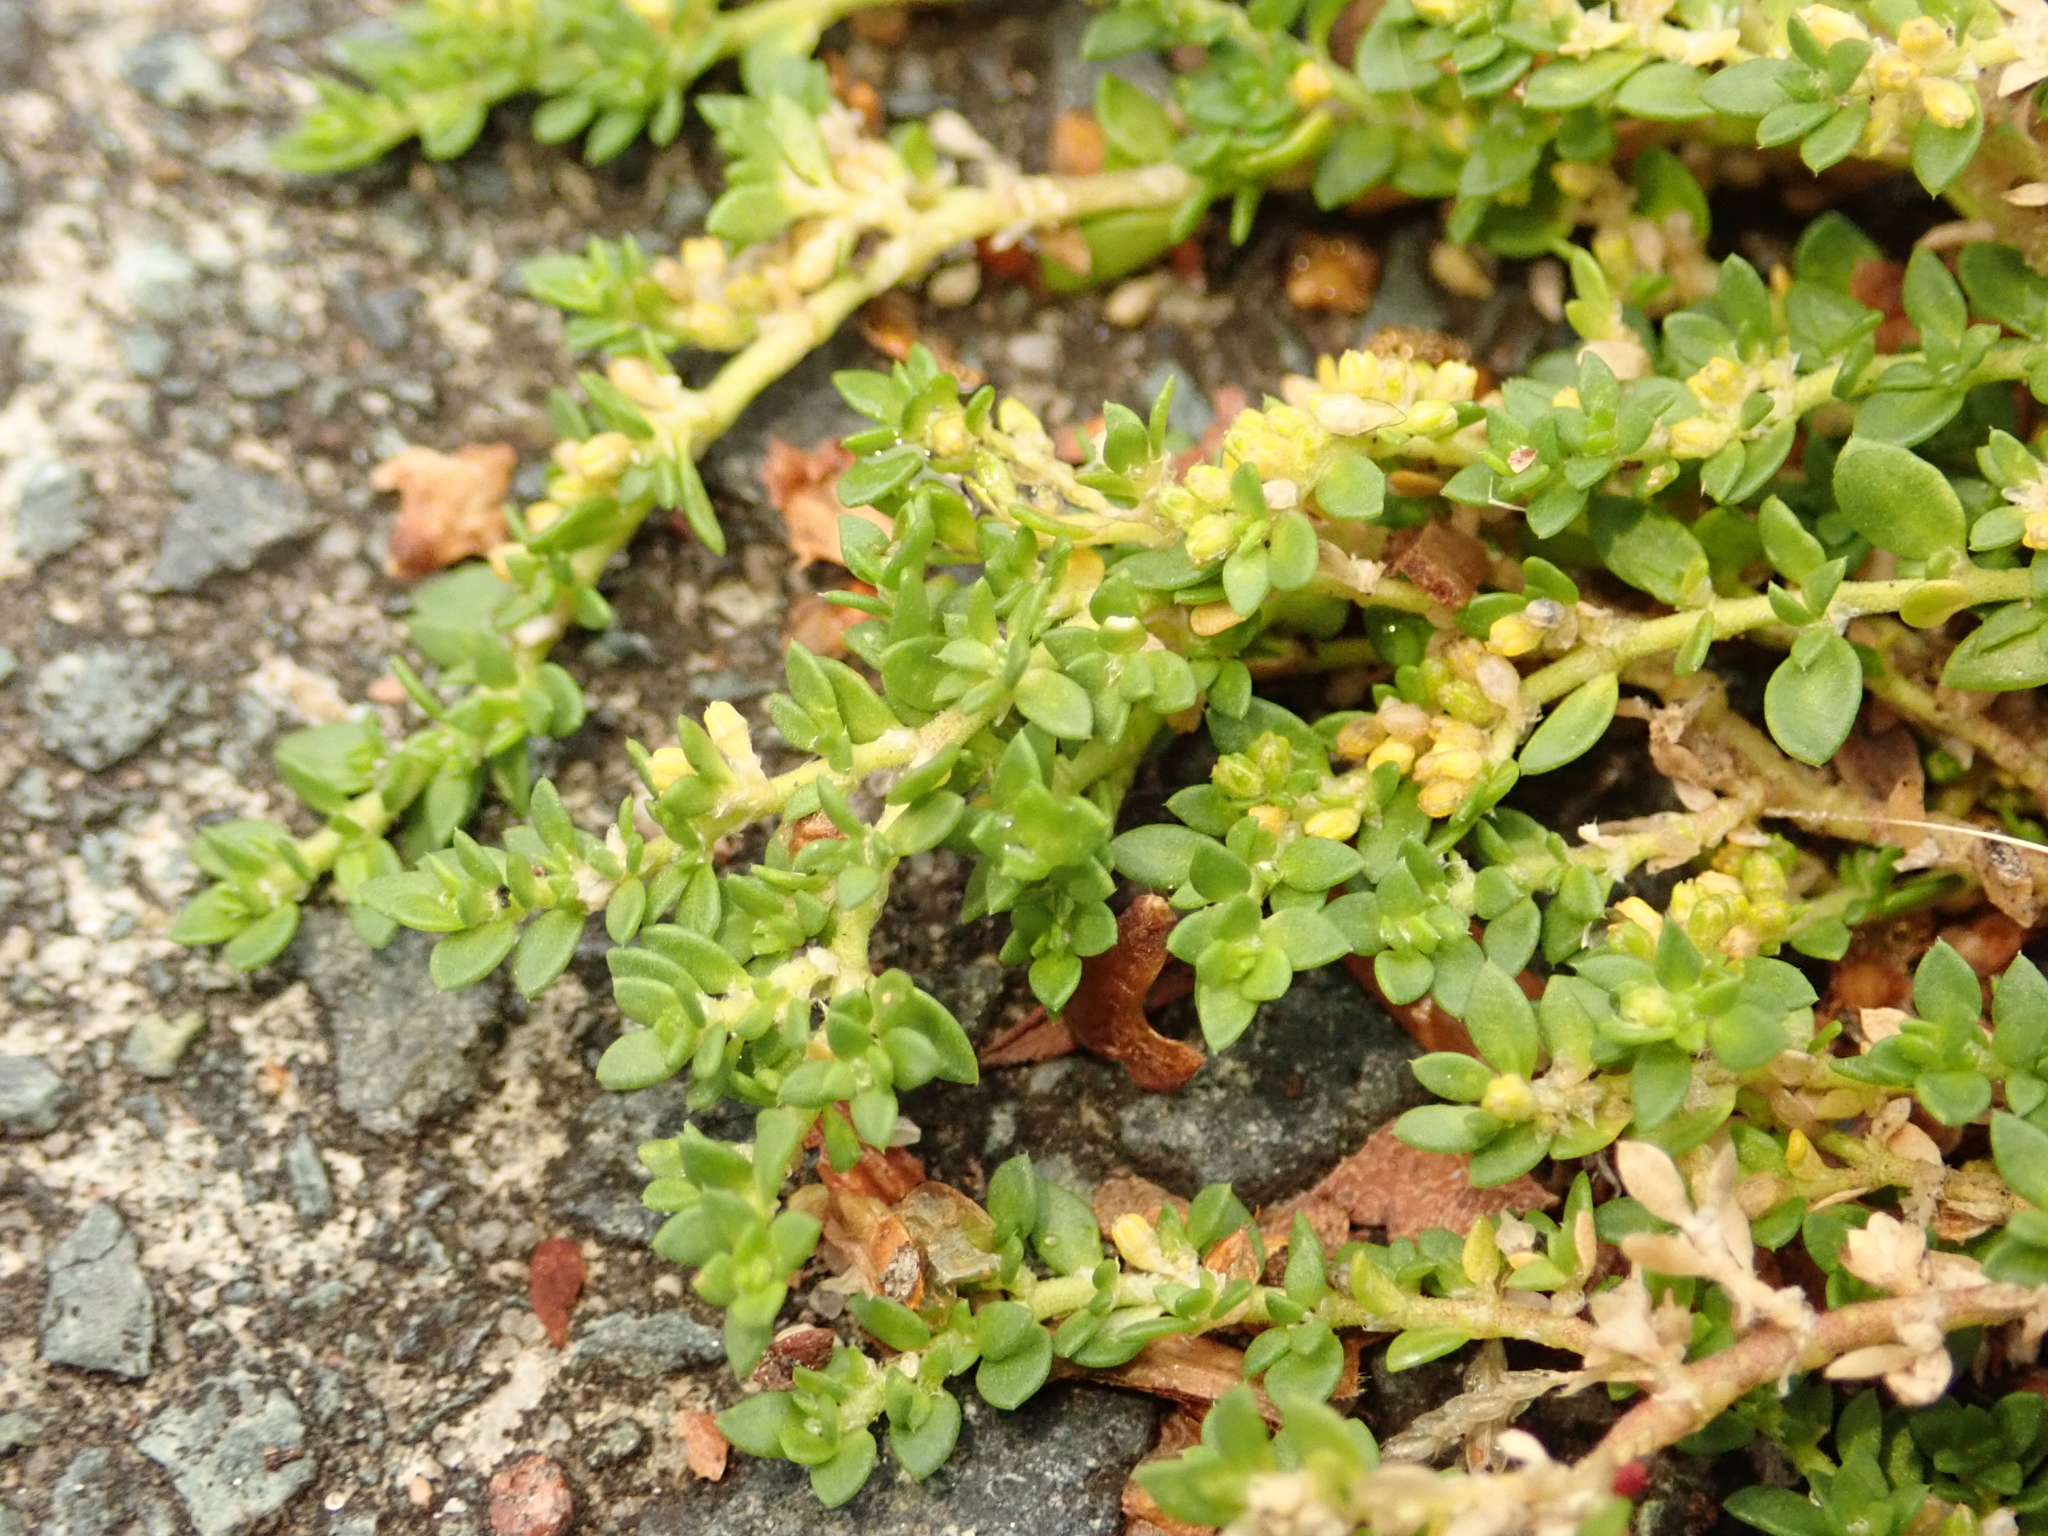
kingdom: Plantae
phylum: Tracheophyta
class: Magnoliopsida
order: Caryophyllales
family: Caryophyllaceae
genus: Herniaria
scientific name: Herniaria glabra
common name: Smooth rupturewort
